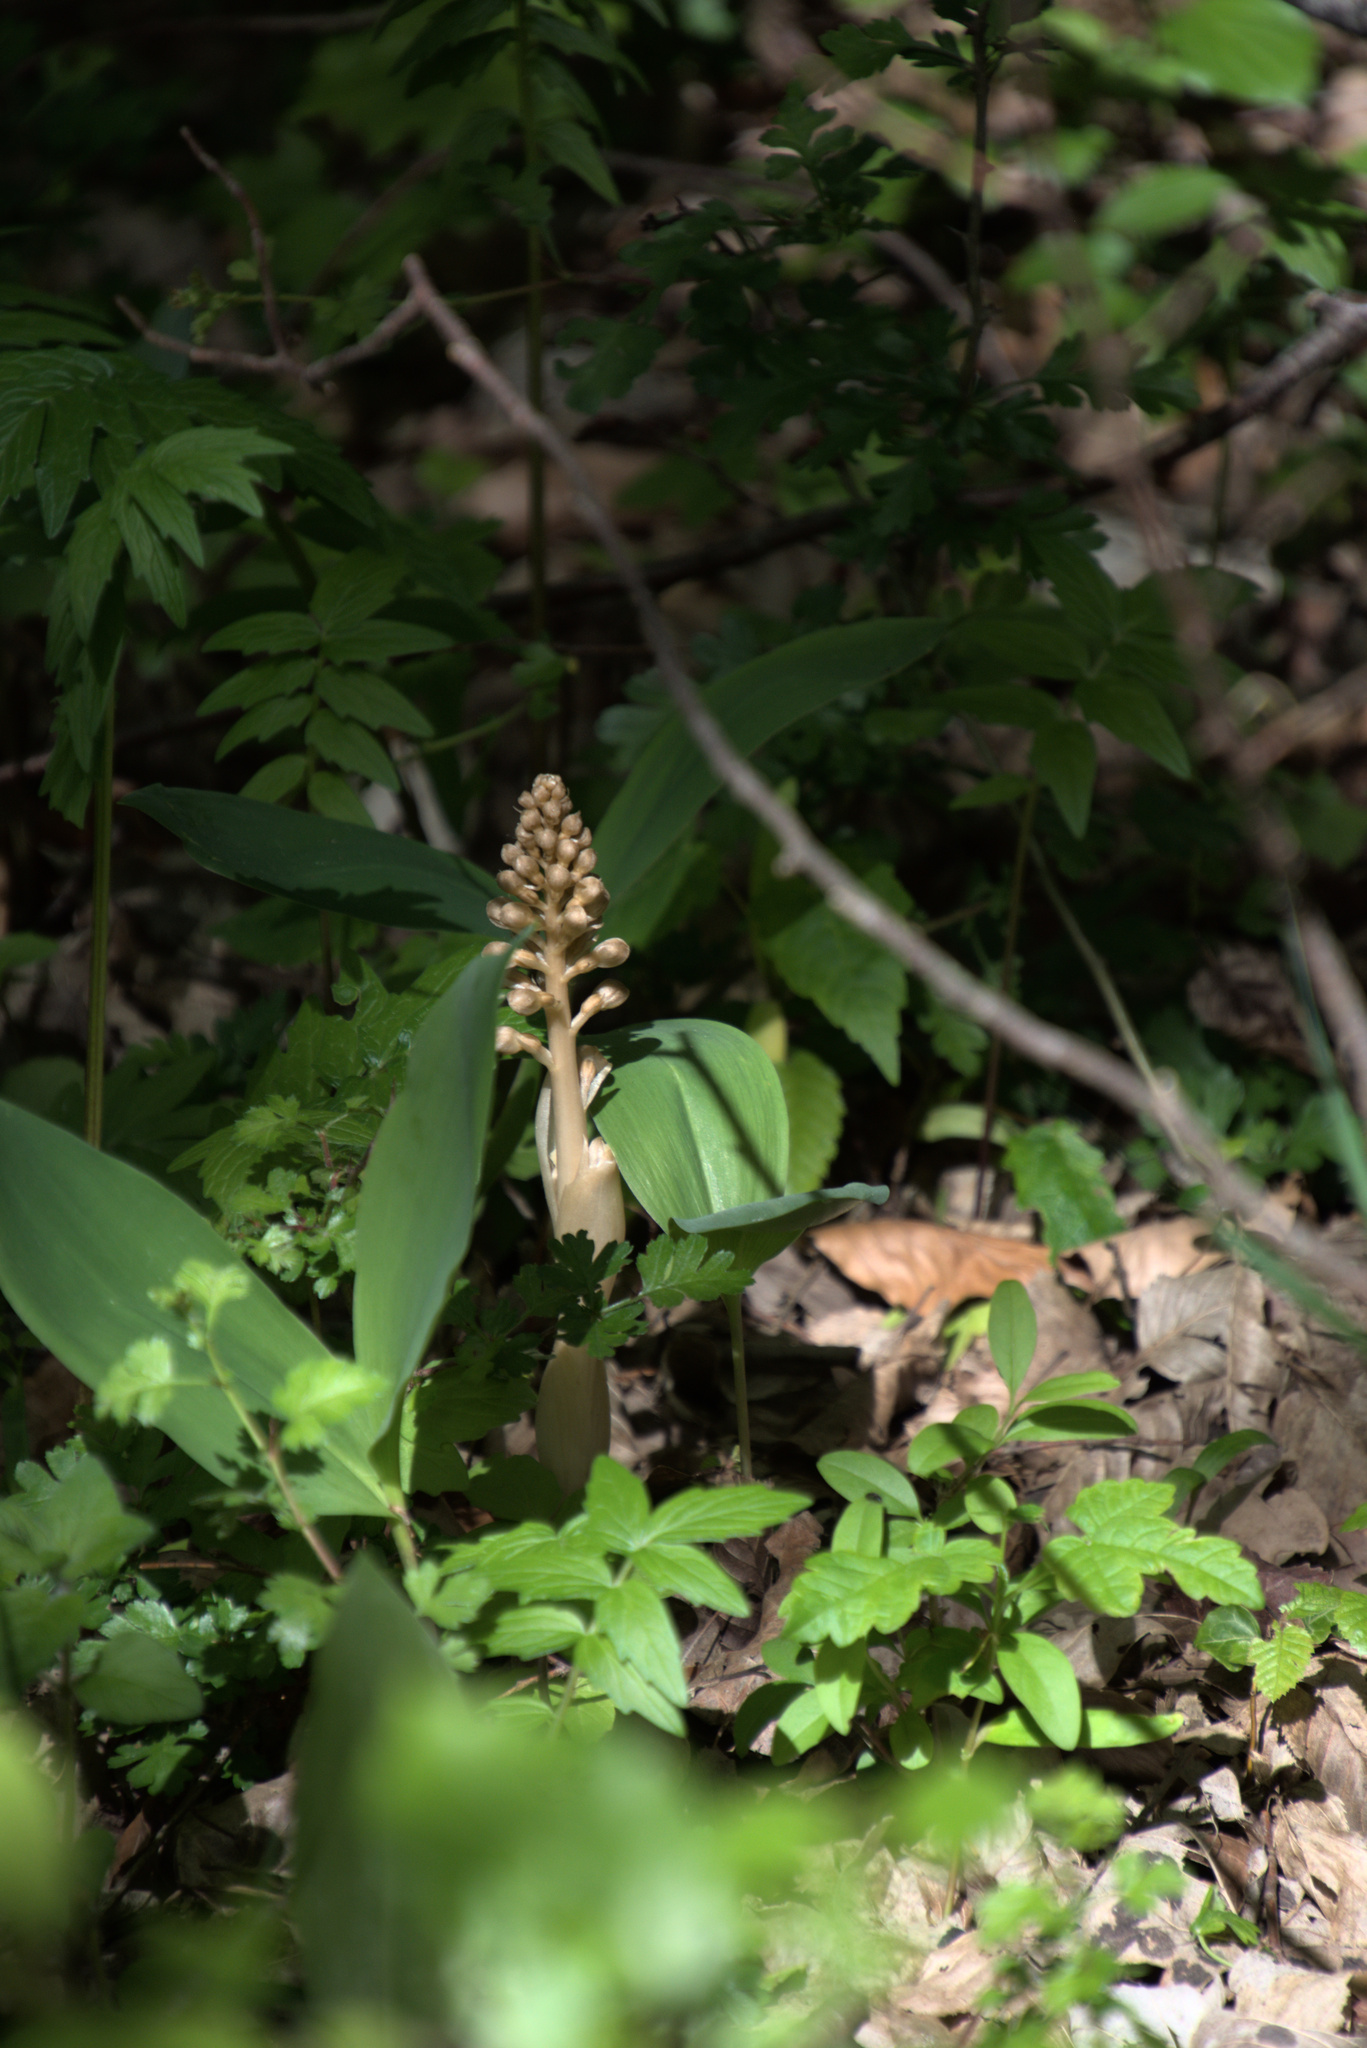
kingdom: Plantae
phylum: Tracheophyta
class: Liliopsida
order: Asparagales
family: Orchidaceae
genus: Neottia
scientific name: Neottia nidus-avis
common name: Bird's-nest orchid
